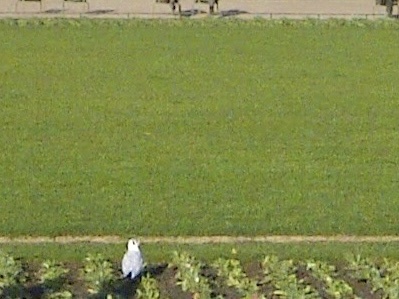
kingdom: Animalia
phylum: Chordata
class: Aves
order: Charadriiformes
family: Laridae
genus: Chroicocephalus
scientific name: Chroicocephalus ridibundus
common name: Black-headed gull
